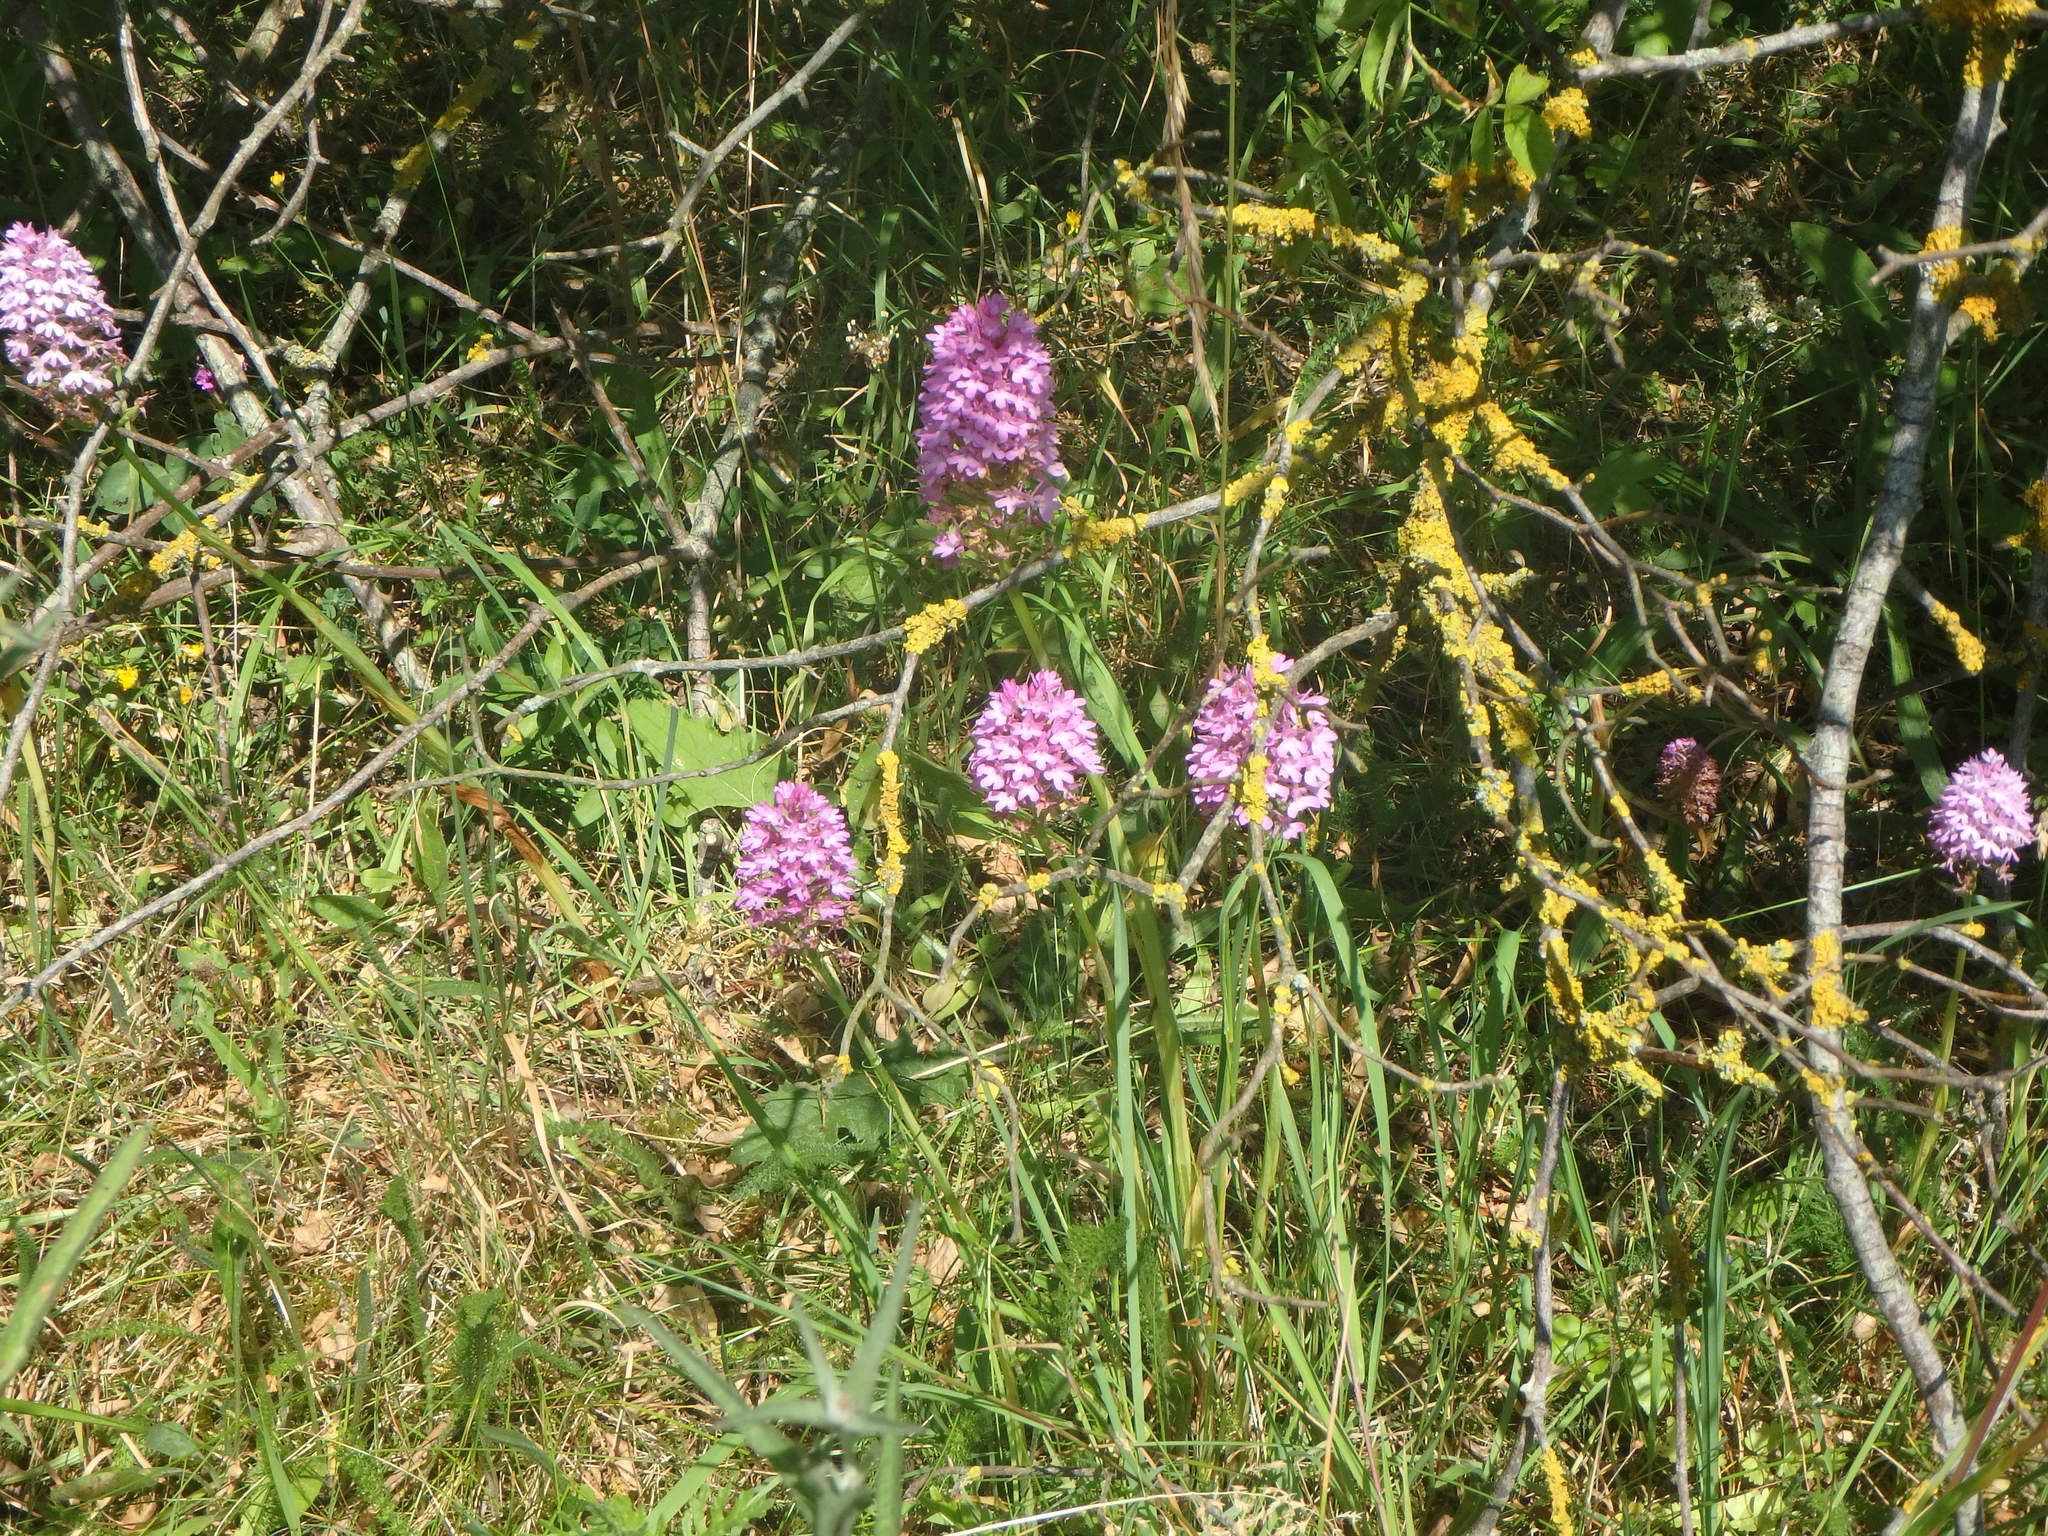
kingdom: Plantae
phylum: Tracheophyta
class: Liliopsida
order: Asparagales
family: Orchidaceae
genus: Anacamptis
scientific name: Anacamptis pyramidalis
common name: Pyramidal orchid
